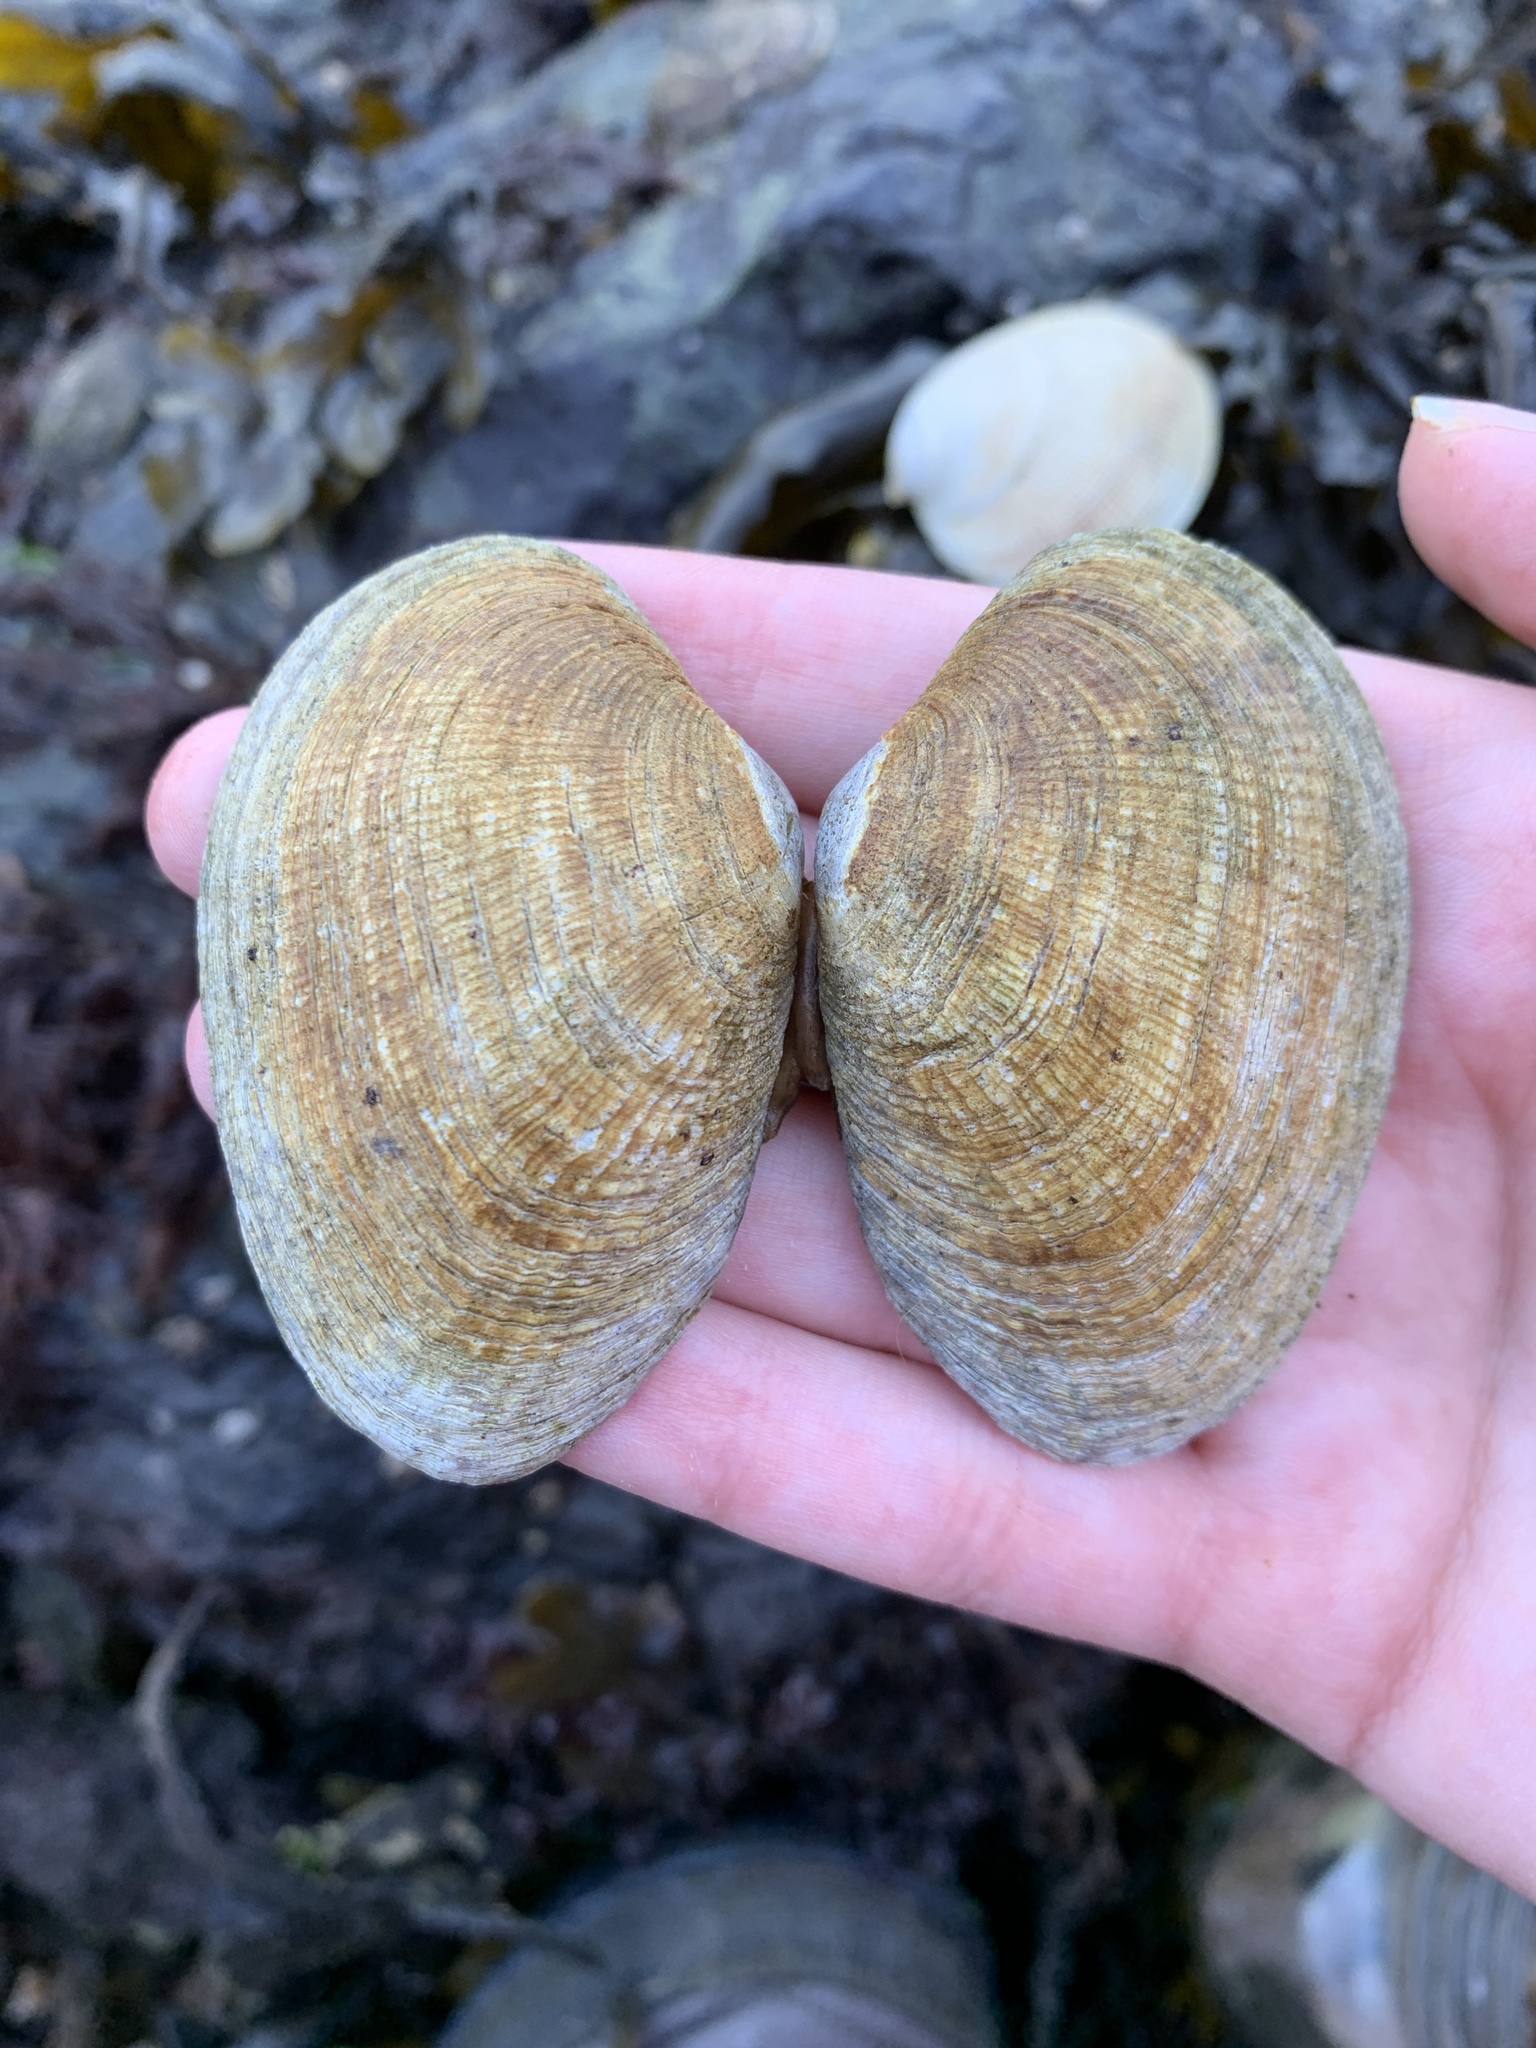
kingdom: Animalia
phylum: Mollusca
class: Bivalvia
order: Venerida
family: Veneridae
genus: Ruditapes
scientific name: Ruditapes philippinarum
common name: Manila clam
